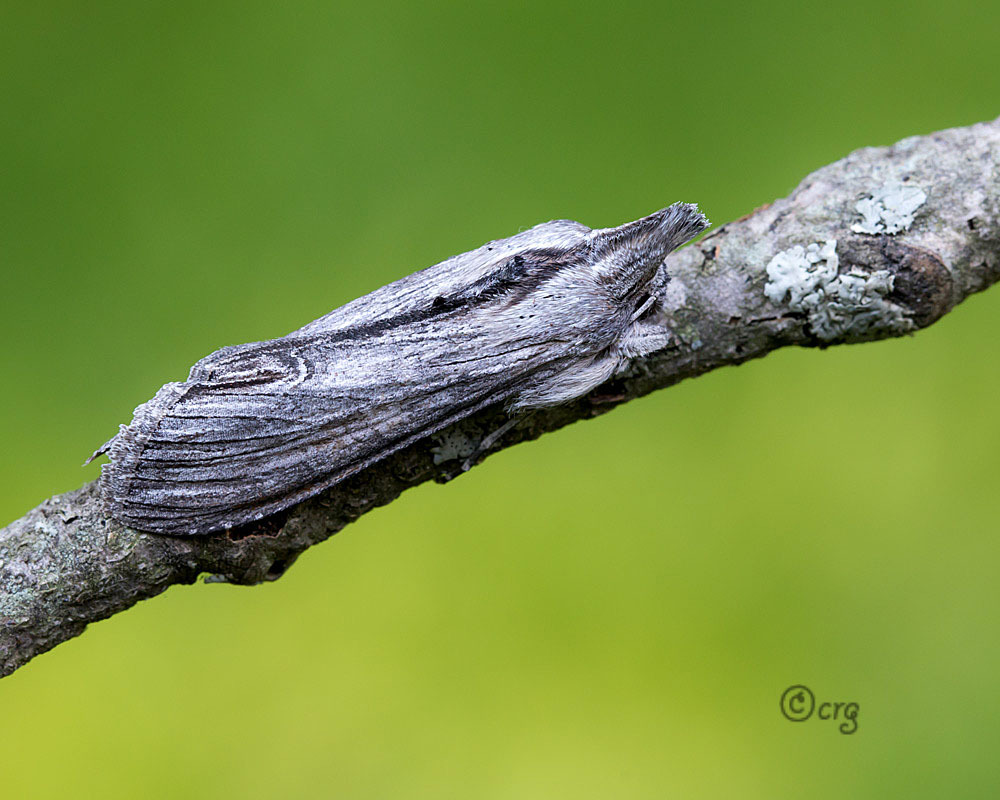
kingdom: Animalia
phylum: Arthropoda
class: Insecta
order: Lepidoptera
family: Noctuidae
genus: Cucullia
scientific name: Cucullia florea
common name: Gray hooded owlet
